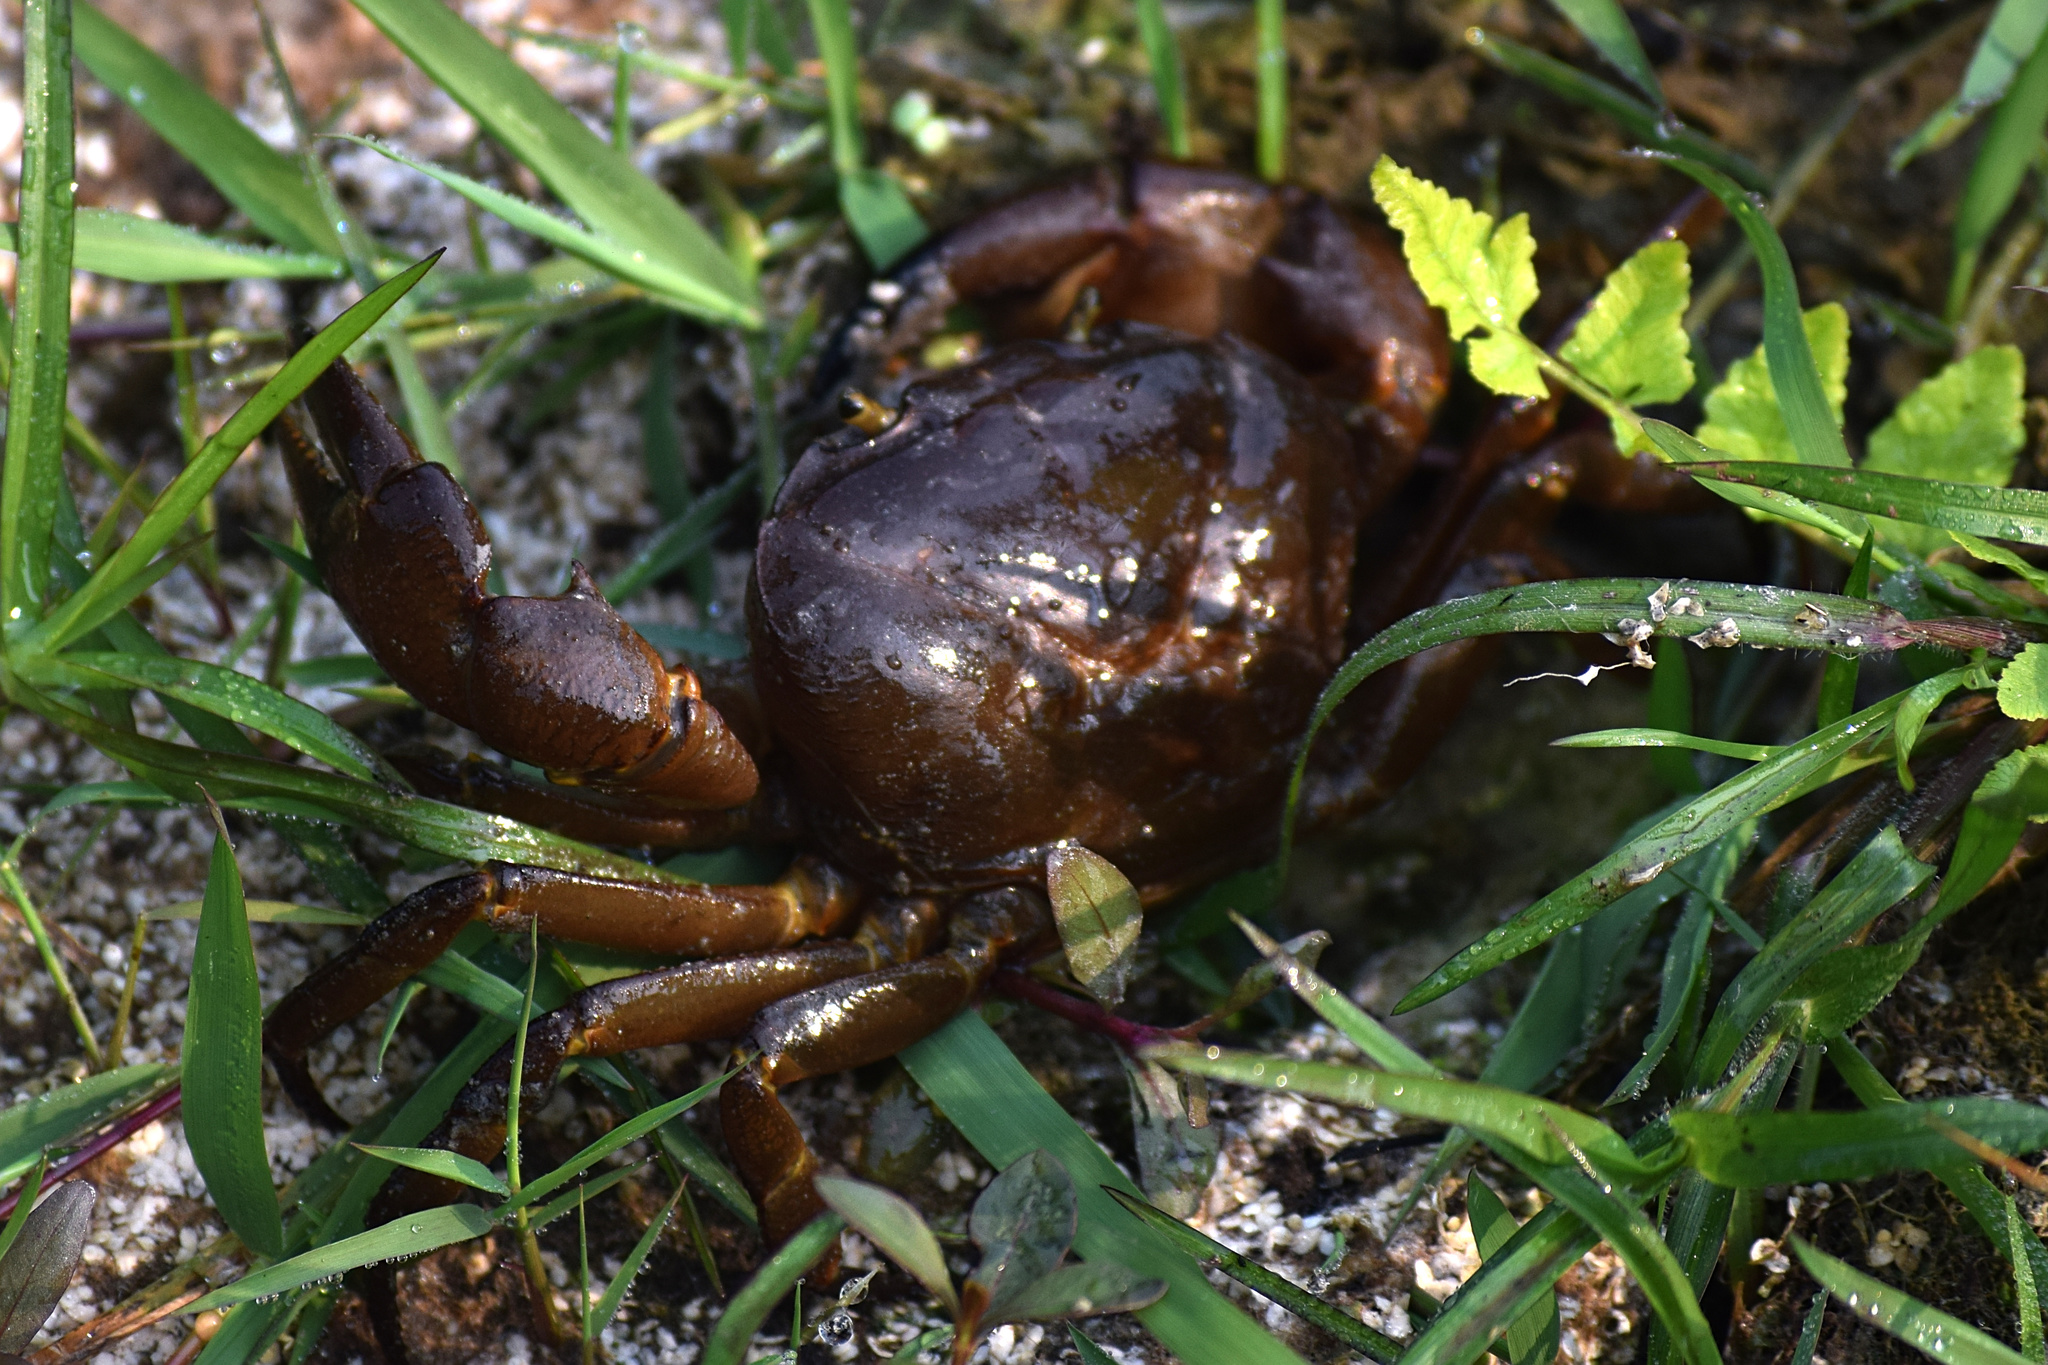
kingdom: Animalia
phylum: Arthropoda
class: Malacostraca
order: Decapoda
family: Gecarcinucidae
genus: Maydelliathelphusa
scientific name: Maydelliathelphusa lugubris
